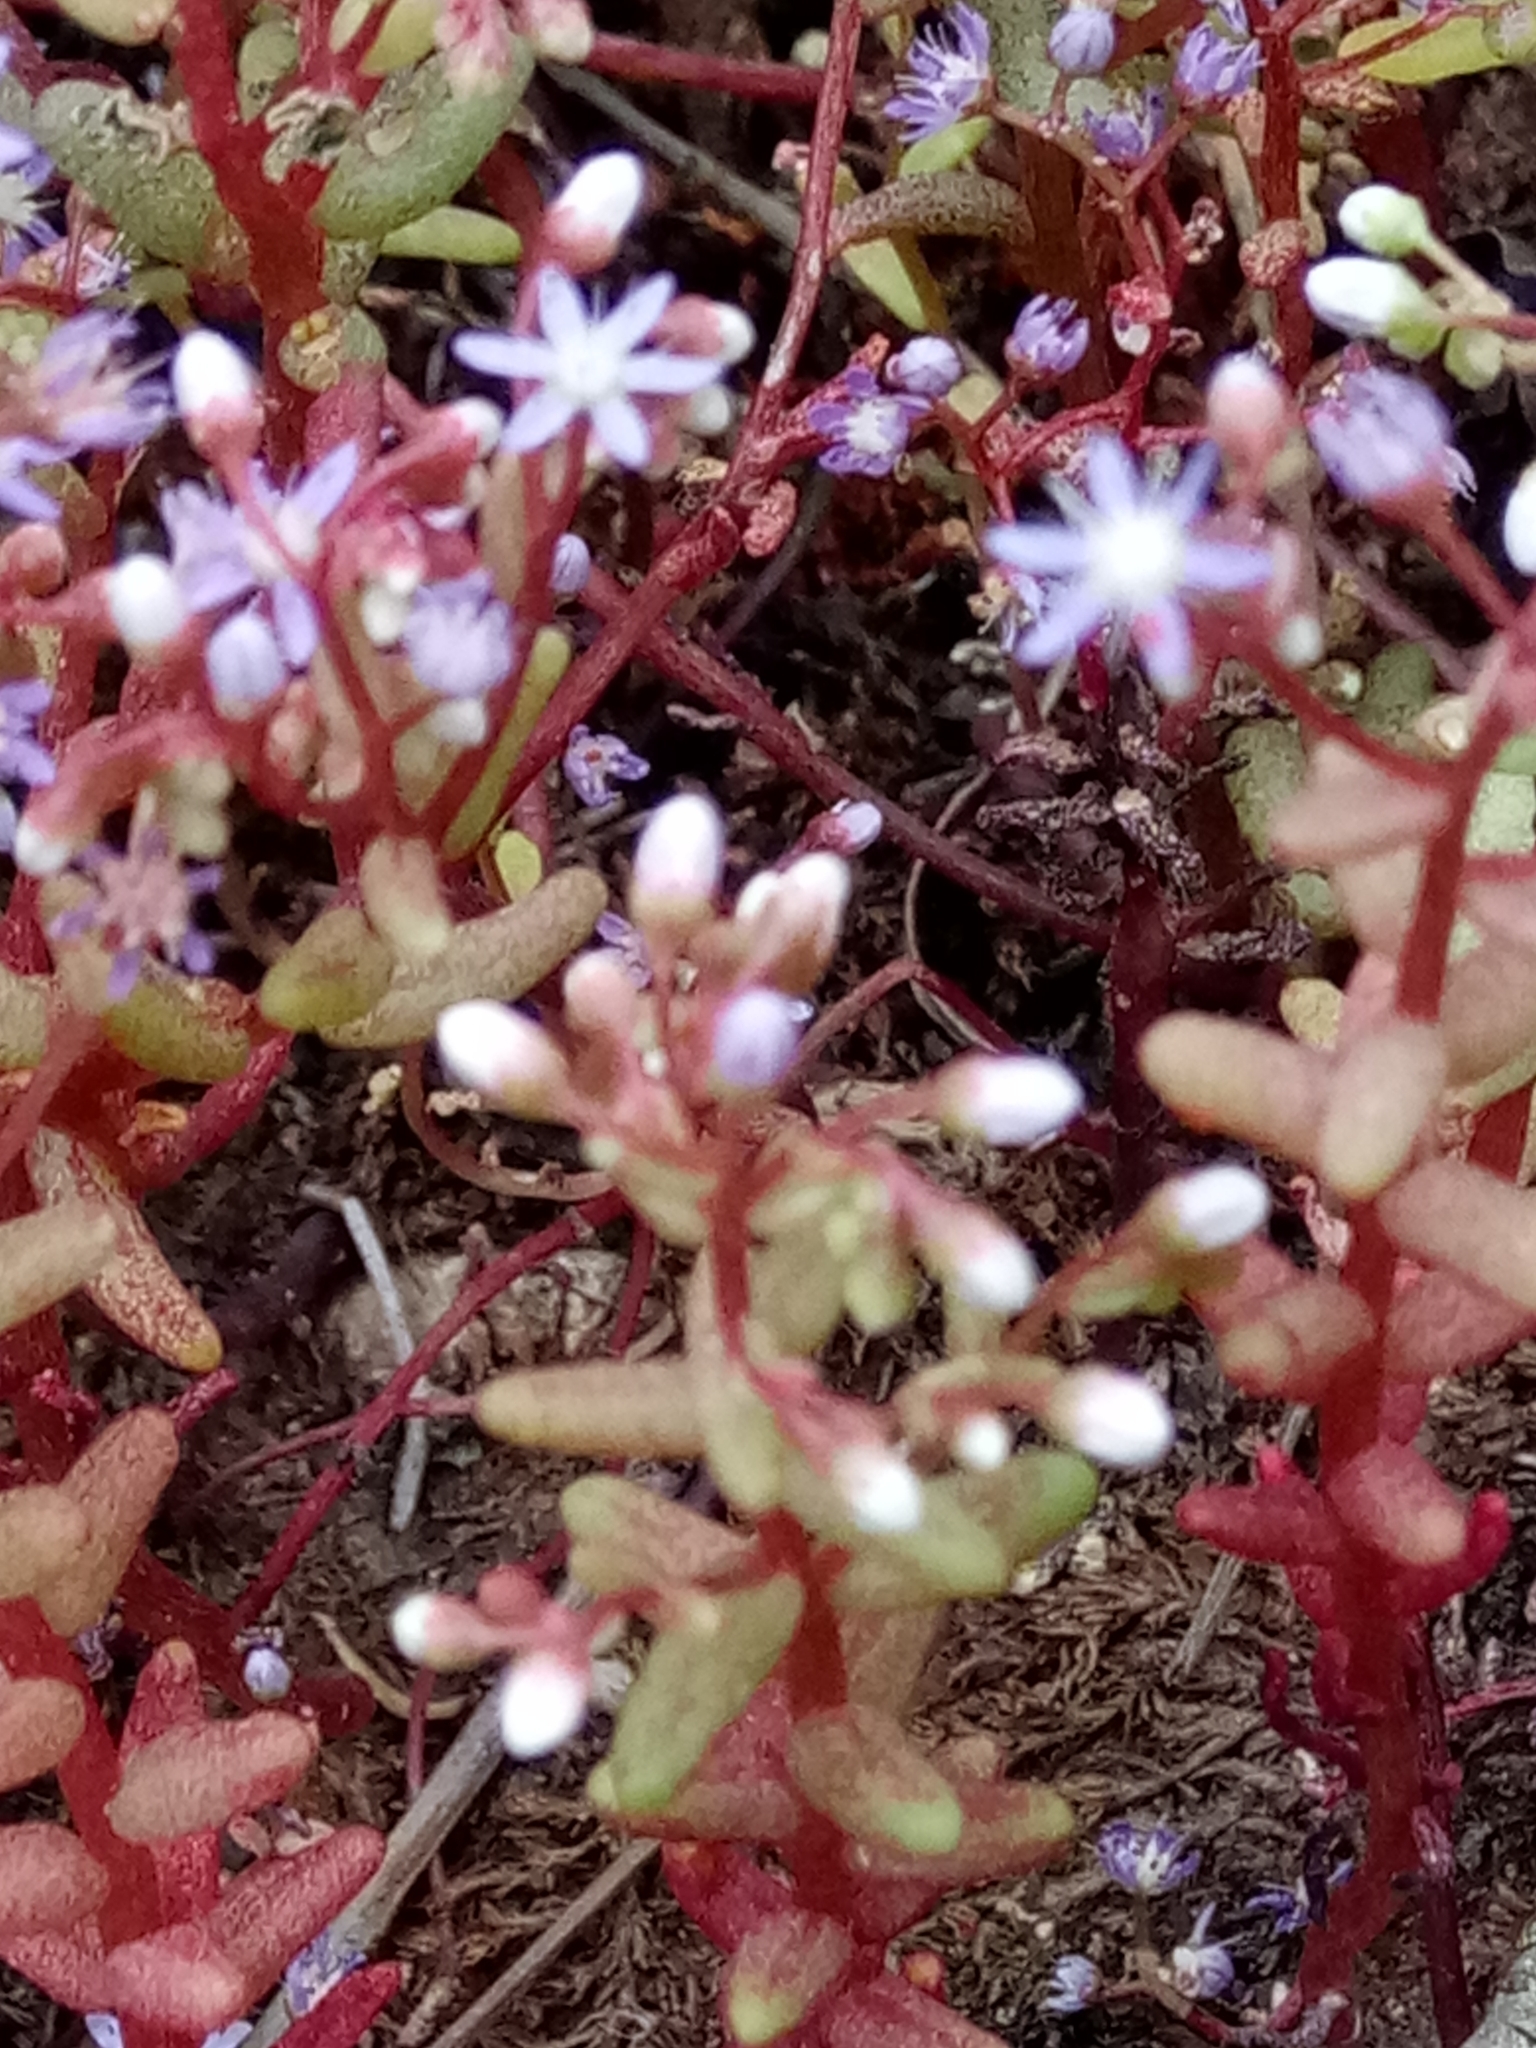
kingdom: Plantae
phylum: Tracheophyta
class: Magnoliopsida
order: Saxifragales
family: Crassulaceae
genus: Sedum
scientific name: Sedum caeruleum
